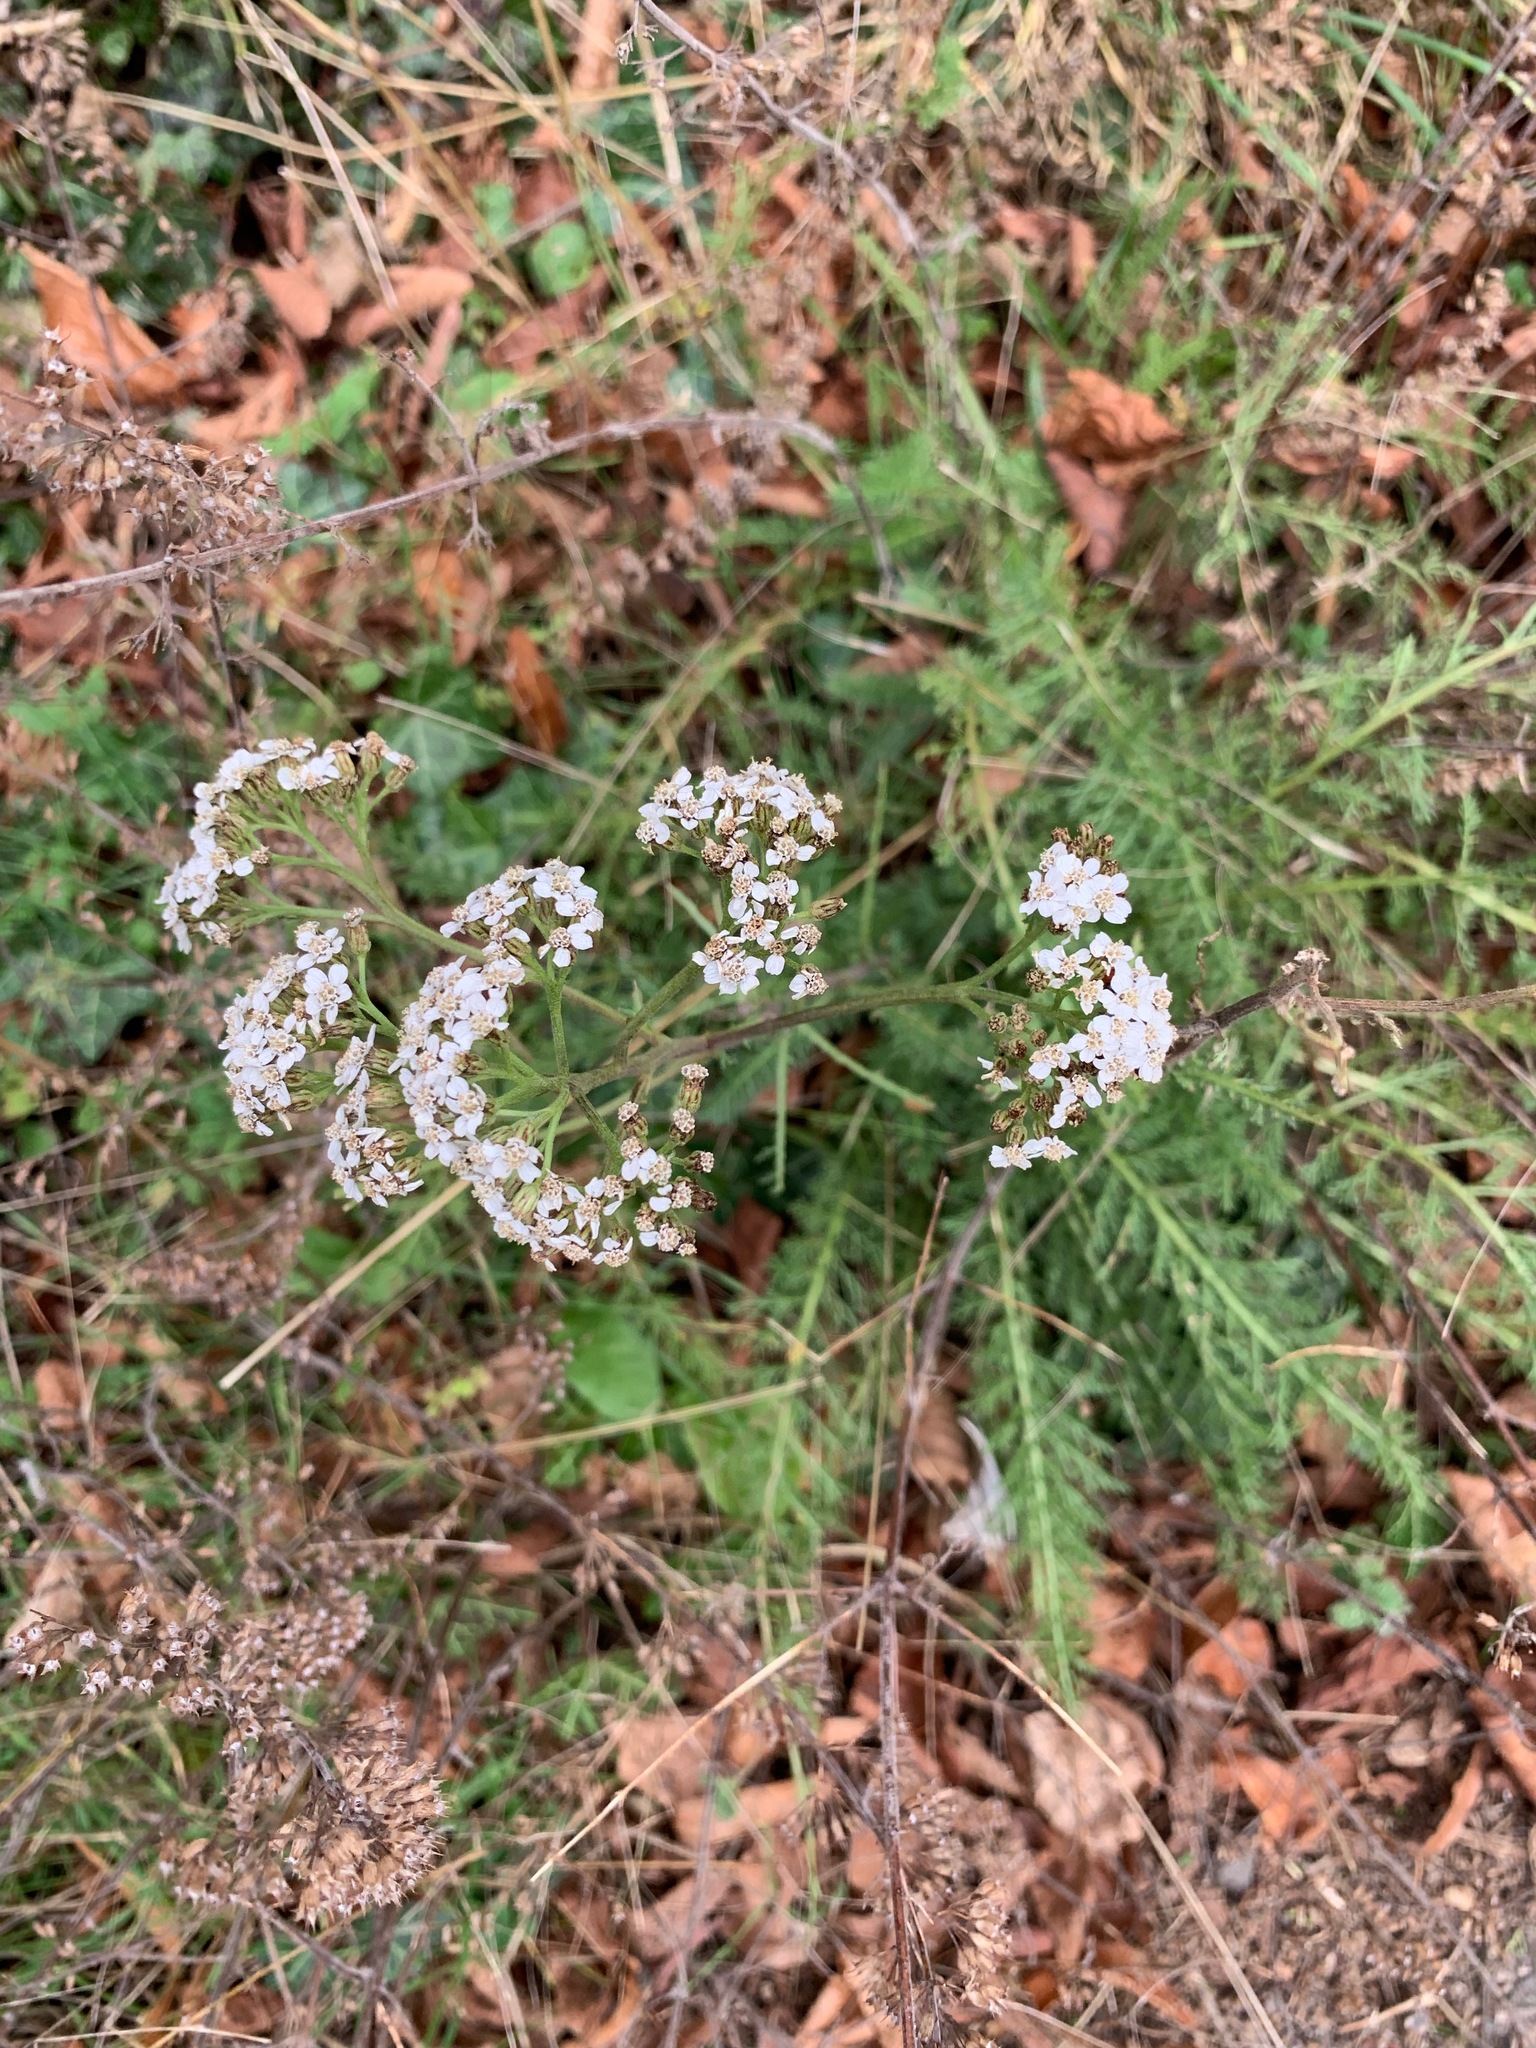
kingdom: Plantae
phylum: Tracheophyta
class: Magnoliopsida
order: Asterales
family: Asteraceae
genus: Achillea
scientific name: Achillea millefolium
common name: Yarrow
